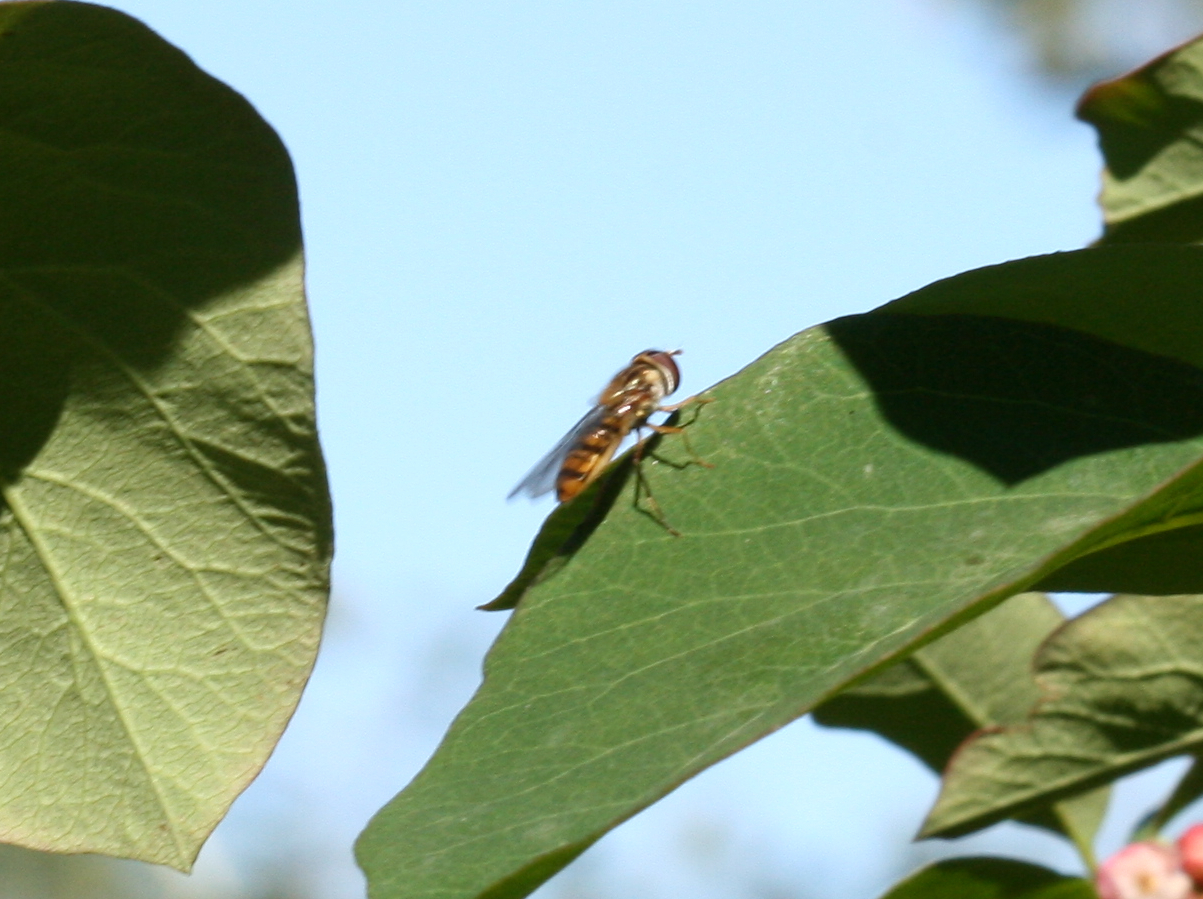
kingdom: Animalia
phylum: Arthropoda
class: Insecta
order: Diptera
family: Syrphidae
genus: Episyrphus
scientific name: Episyrphus balteatus
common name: Marmalade hoverfly
